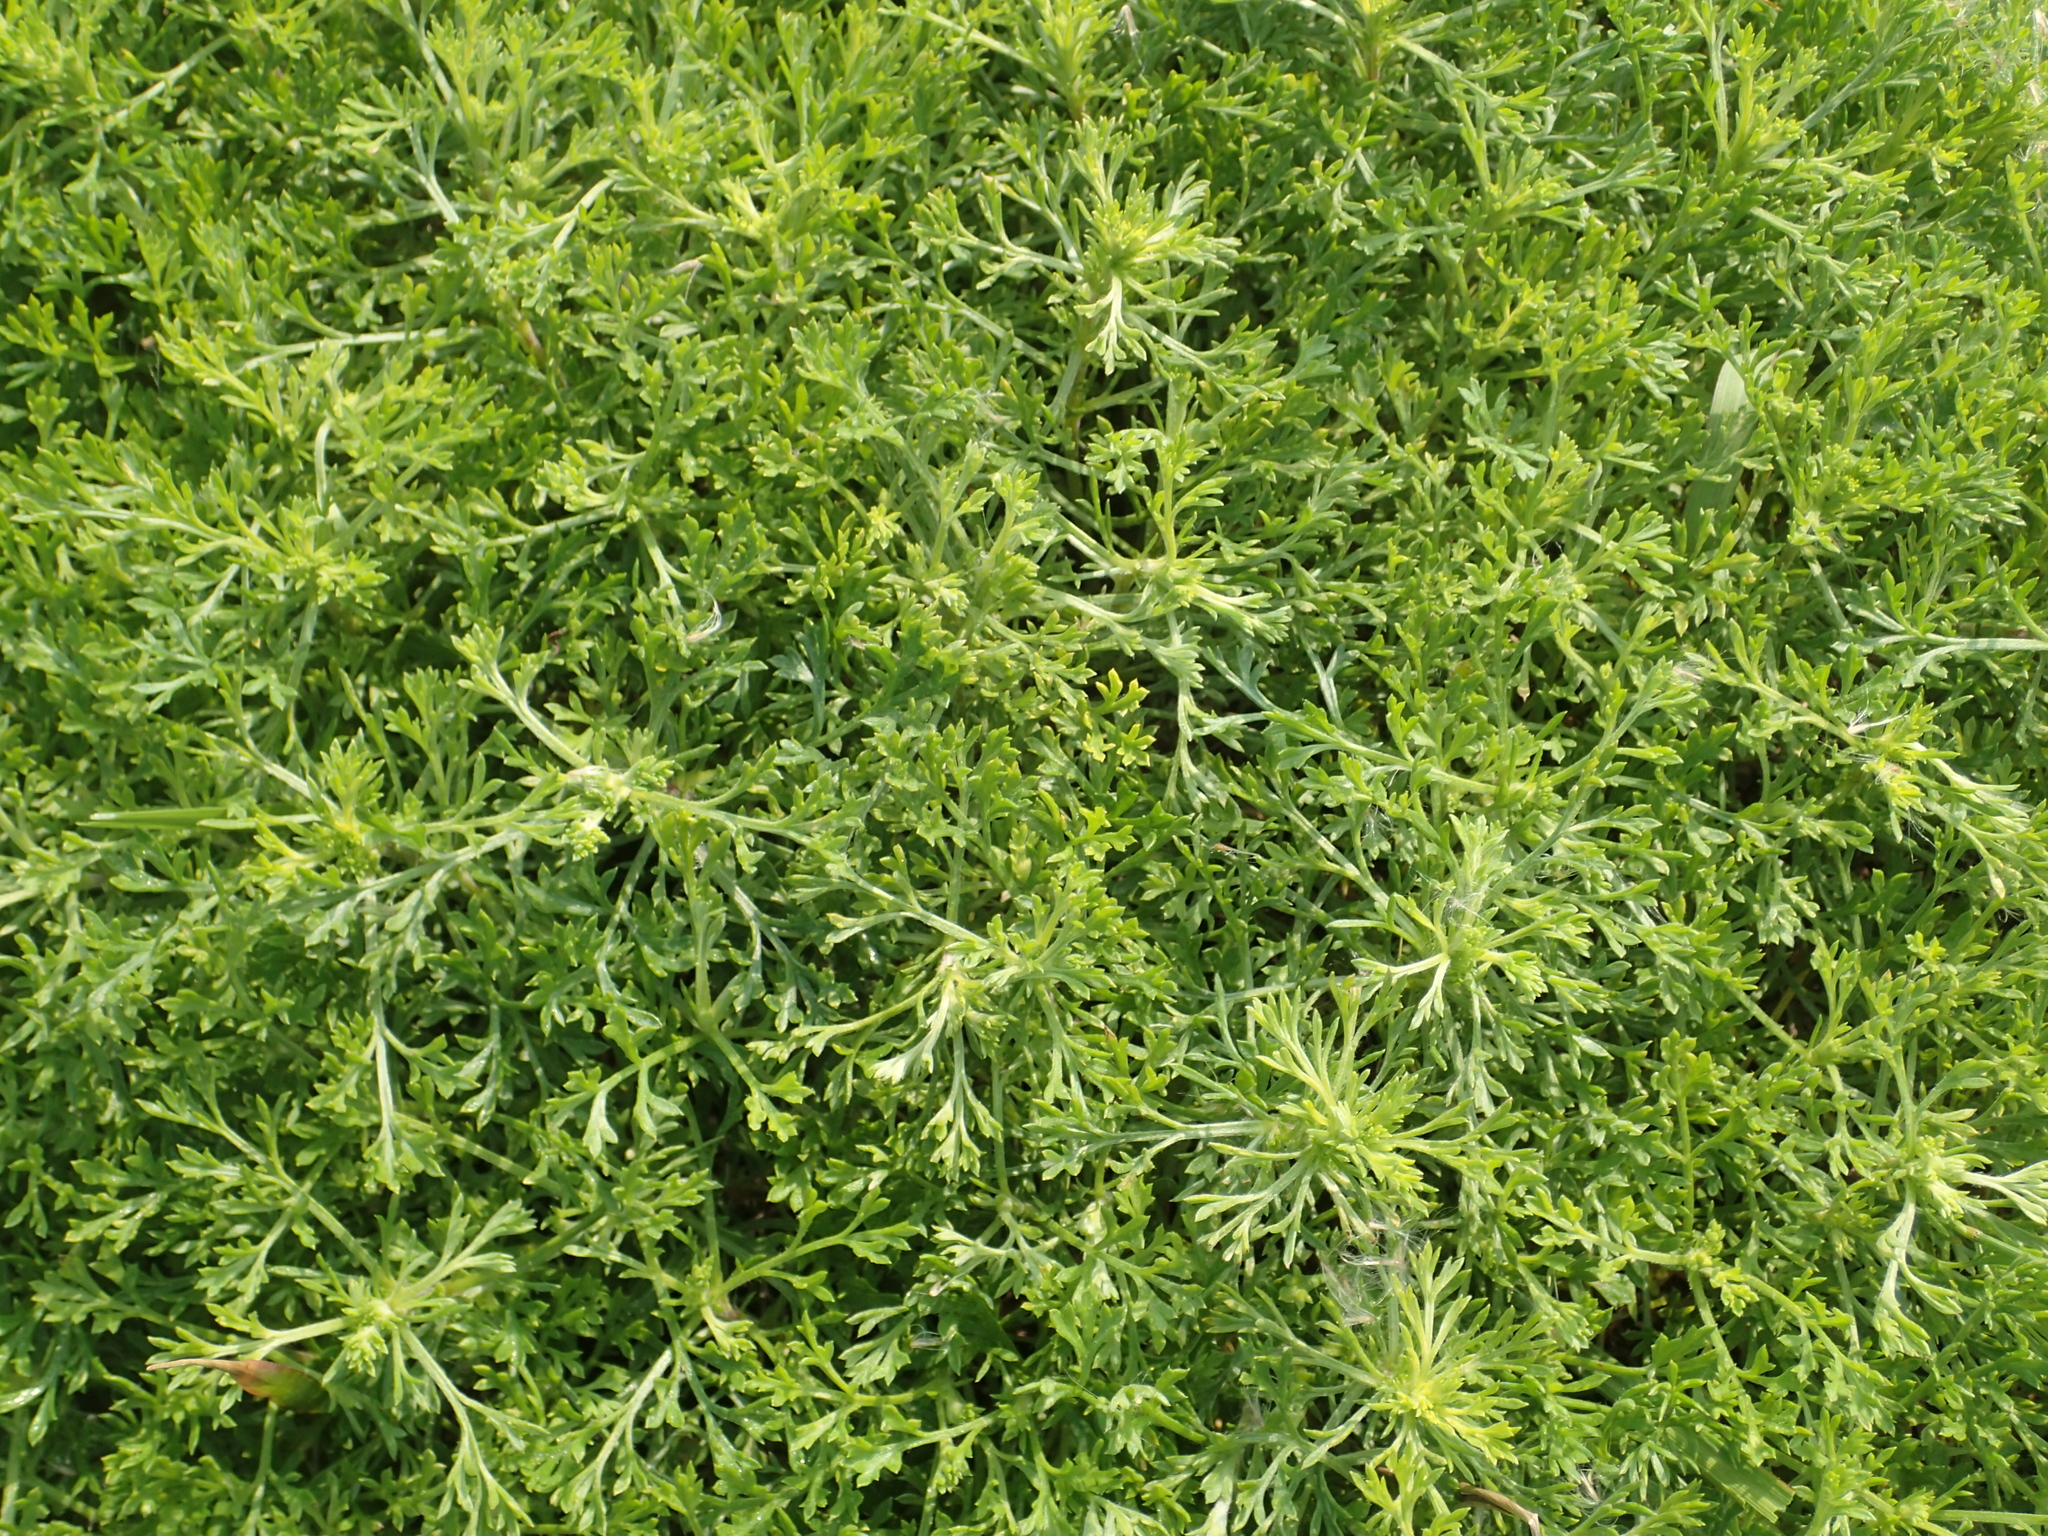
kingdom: Plantae
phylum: Tracheophyta
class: Magnoliopsida
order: Asterales
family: Asteraceae
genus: Artemisia
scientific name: Artemisia capillaris
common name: Yin-chen wormwood
